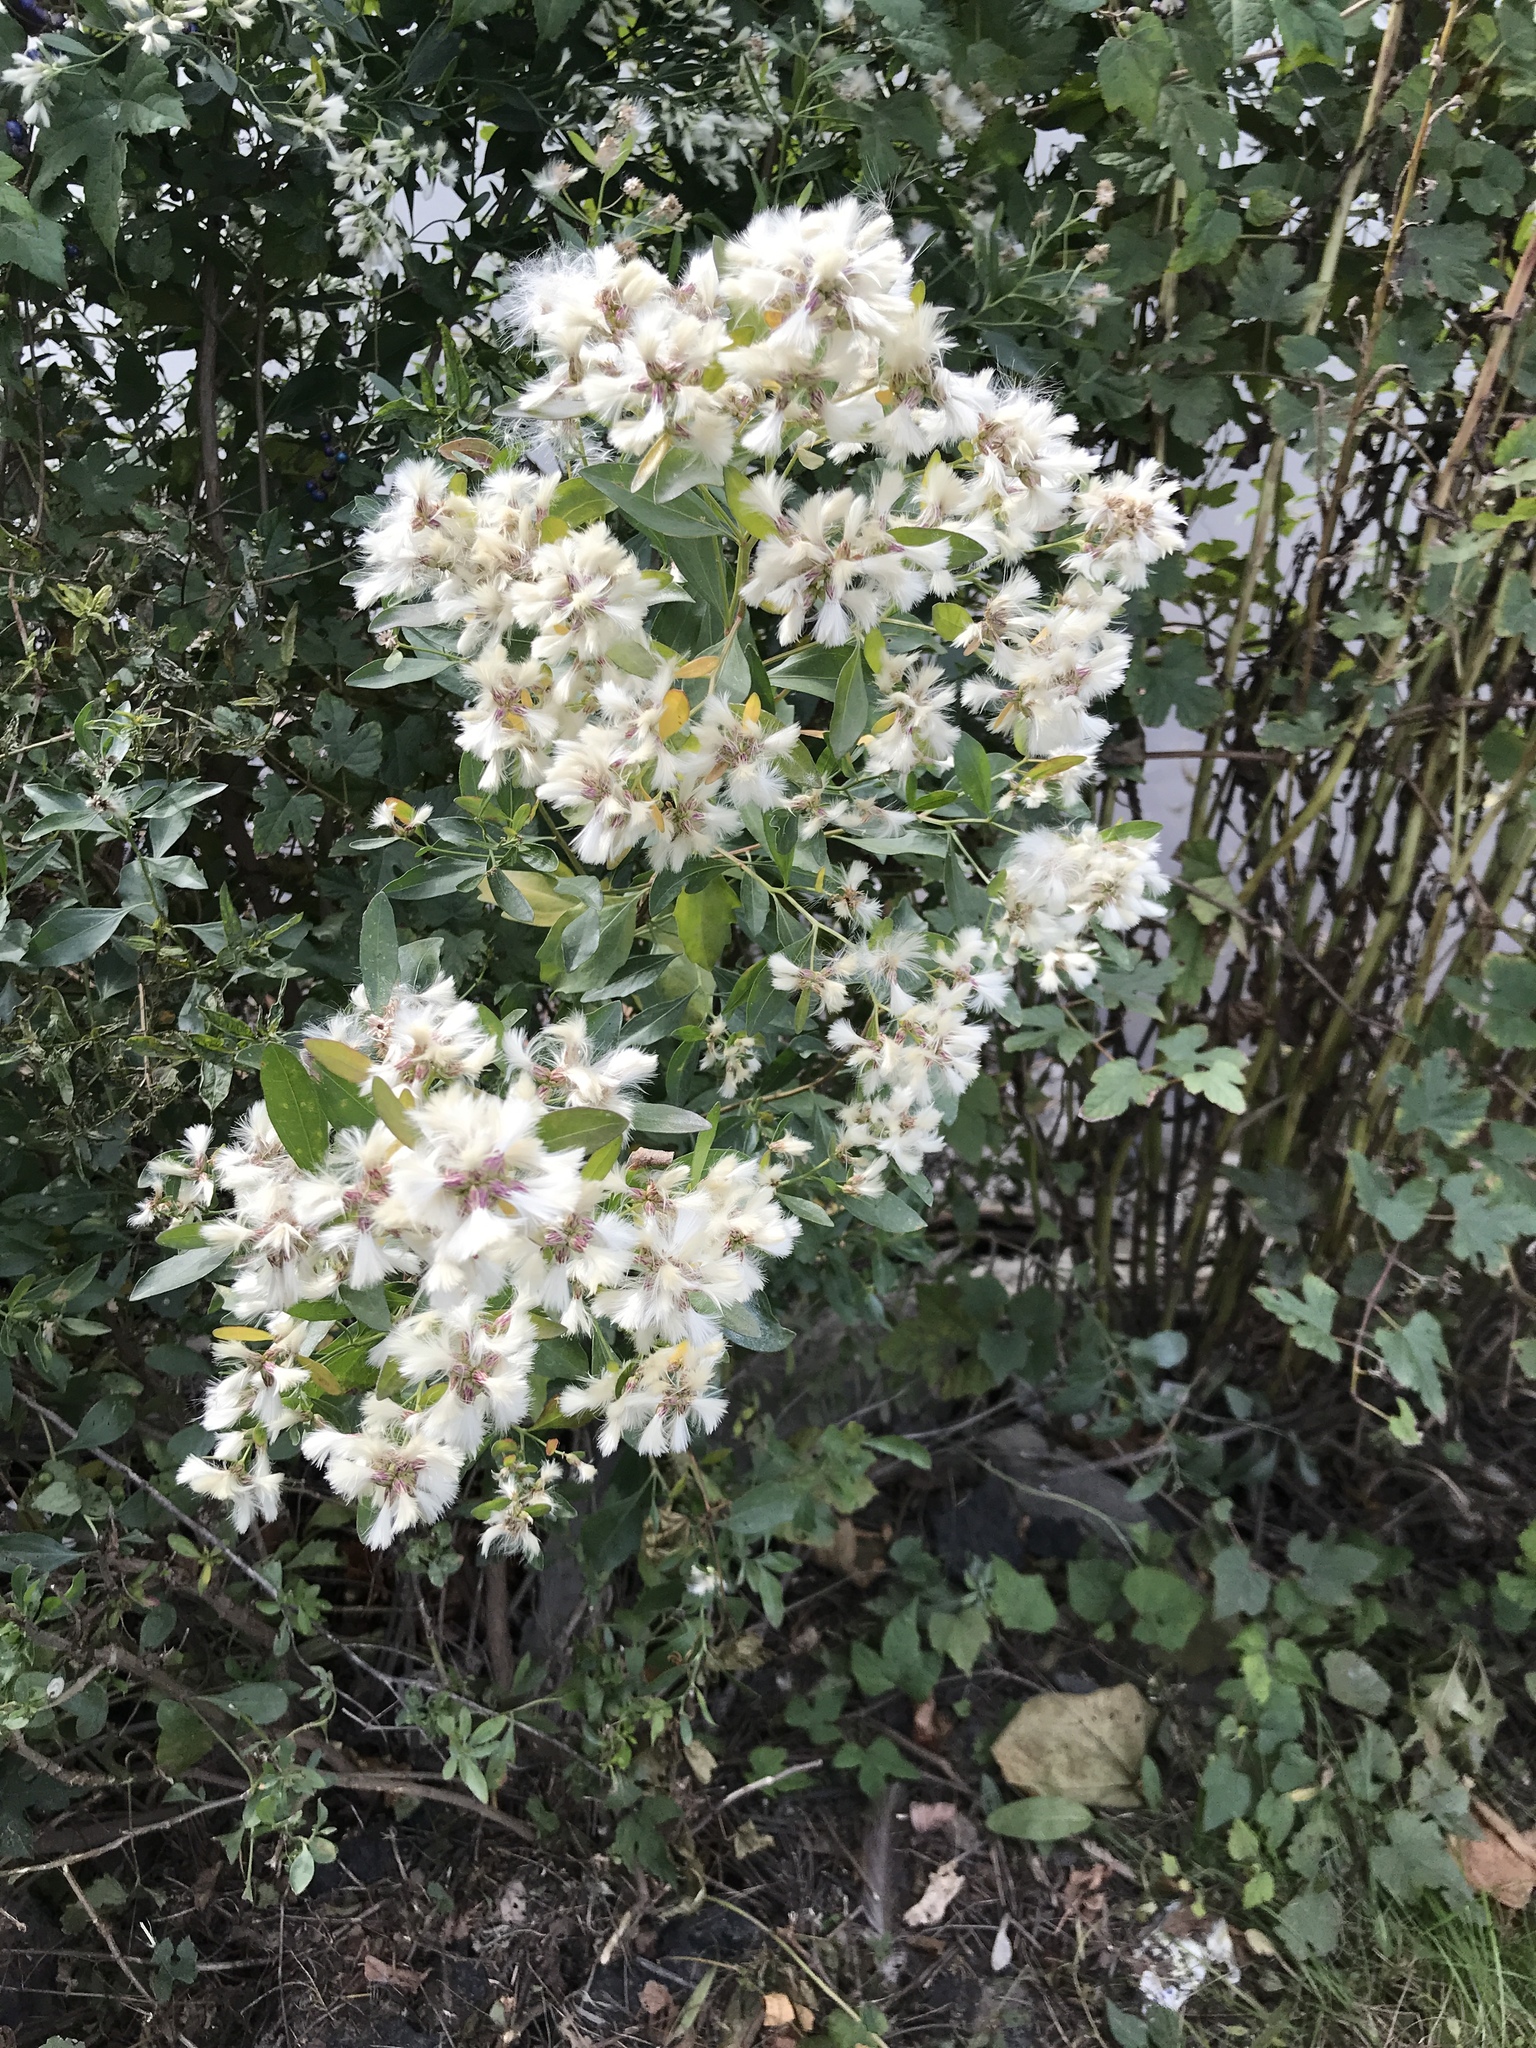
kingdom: Plantae
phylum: Tracheophyta
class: Magnoliopsida
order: Asterales
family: Asteraceae
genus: Baccharis
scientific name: Baccharis halimifolia
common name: Eastern baccharis
